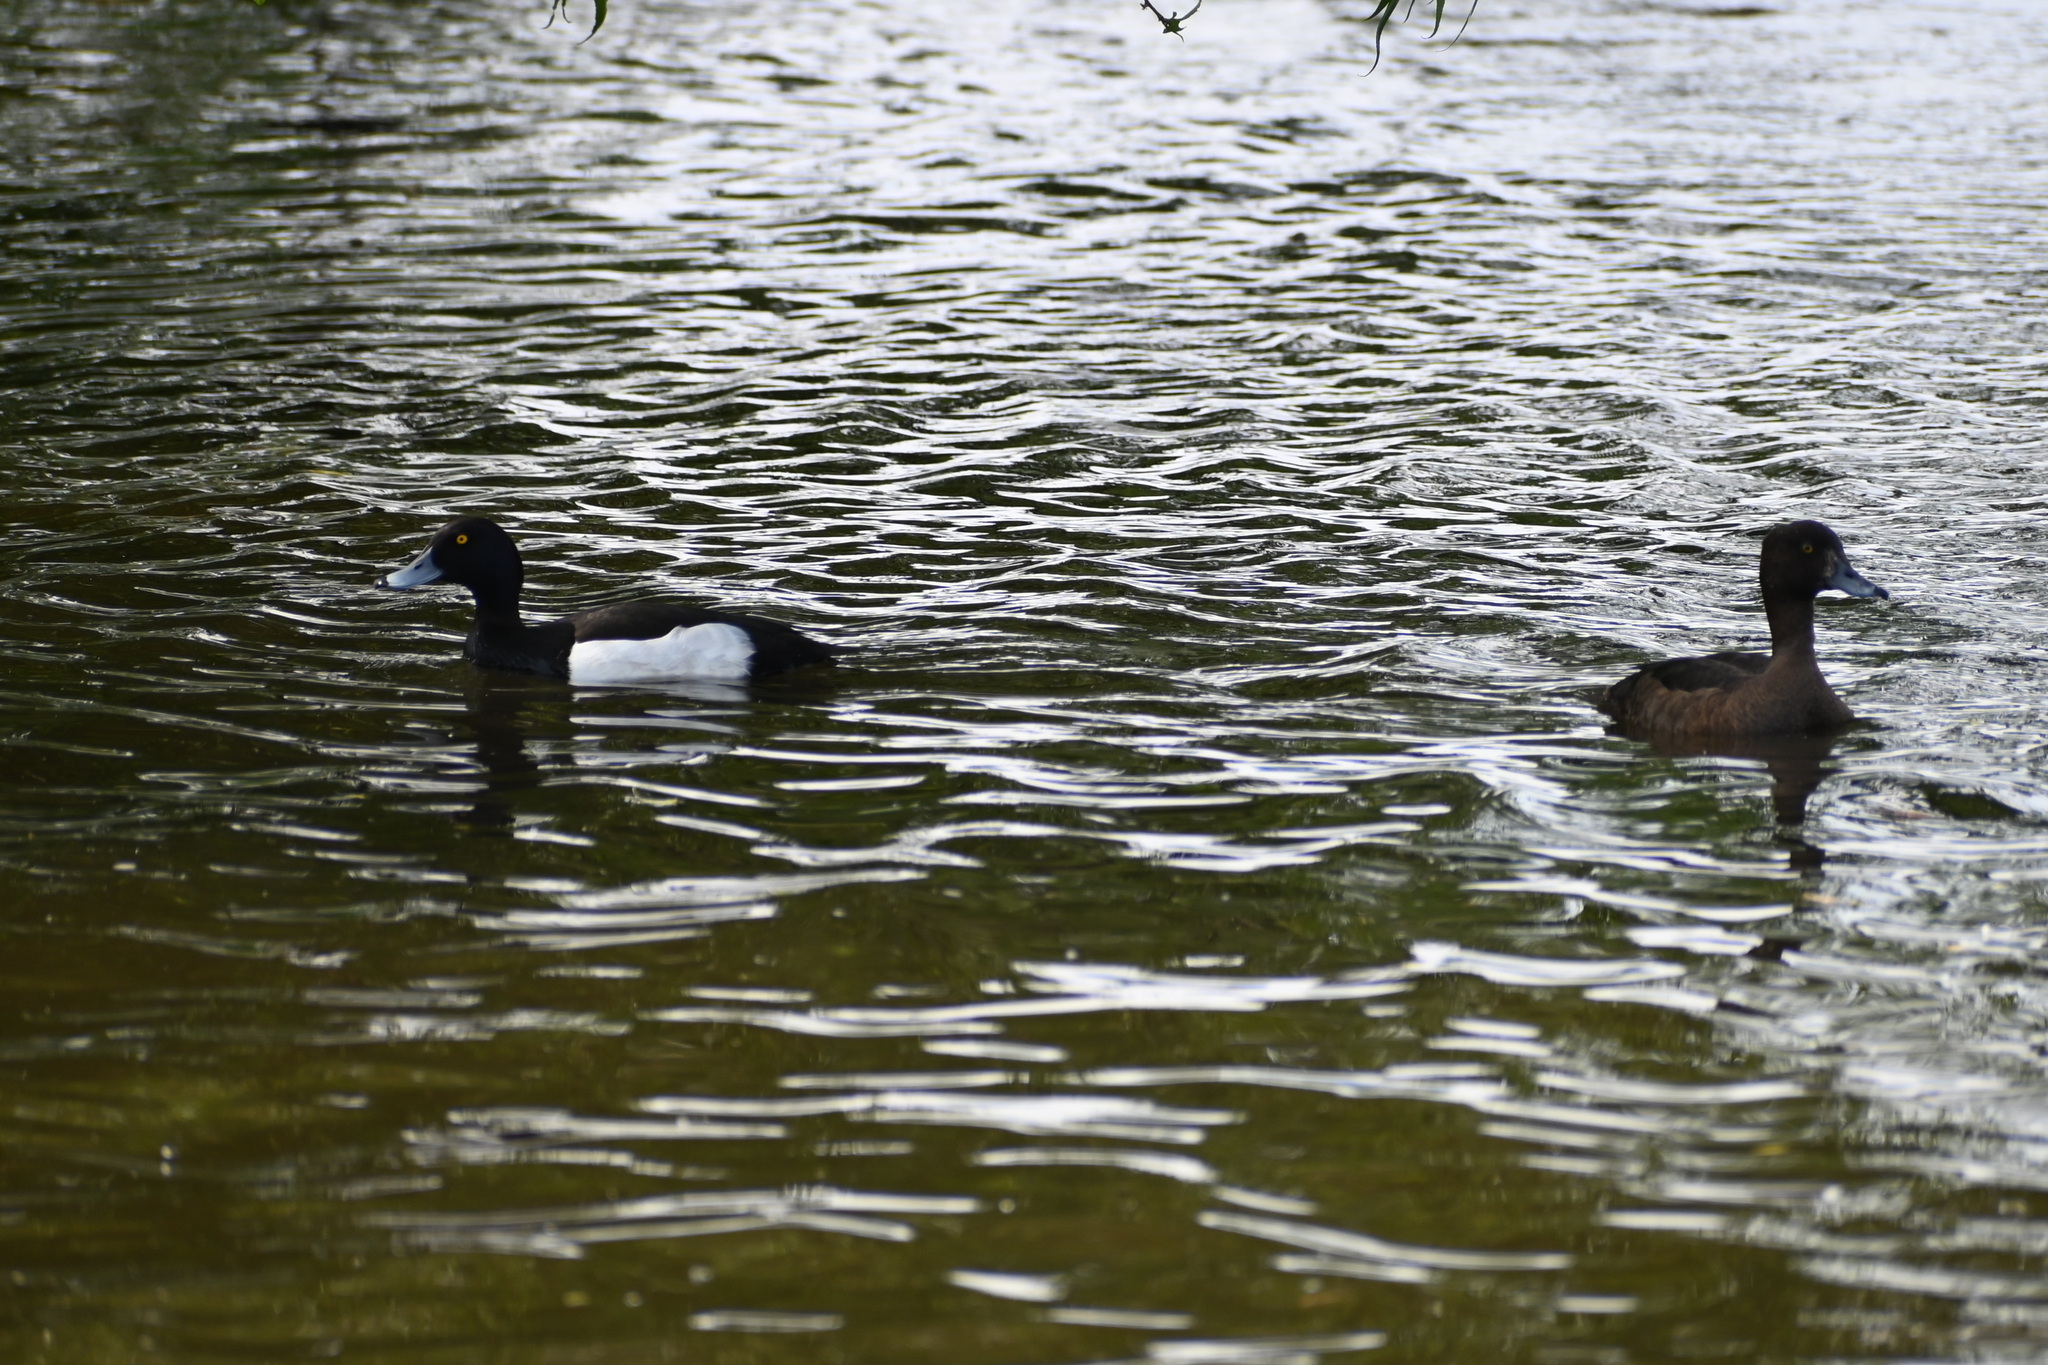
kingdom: Animalia
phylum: Chordata
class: Aves
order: Anseriformes
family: Anatidae
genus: Aythya
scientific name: Aythya fuligula
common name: Tufted duck
